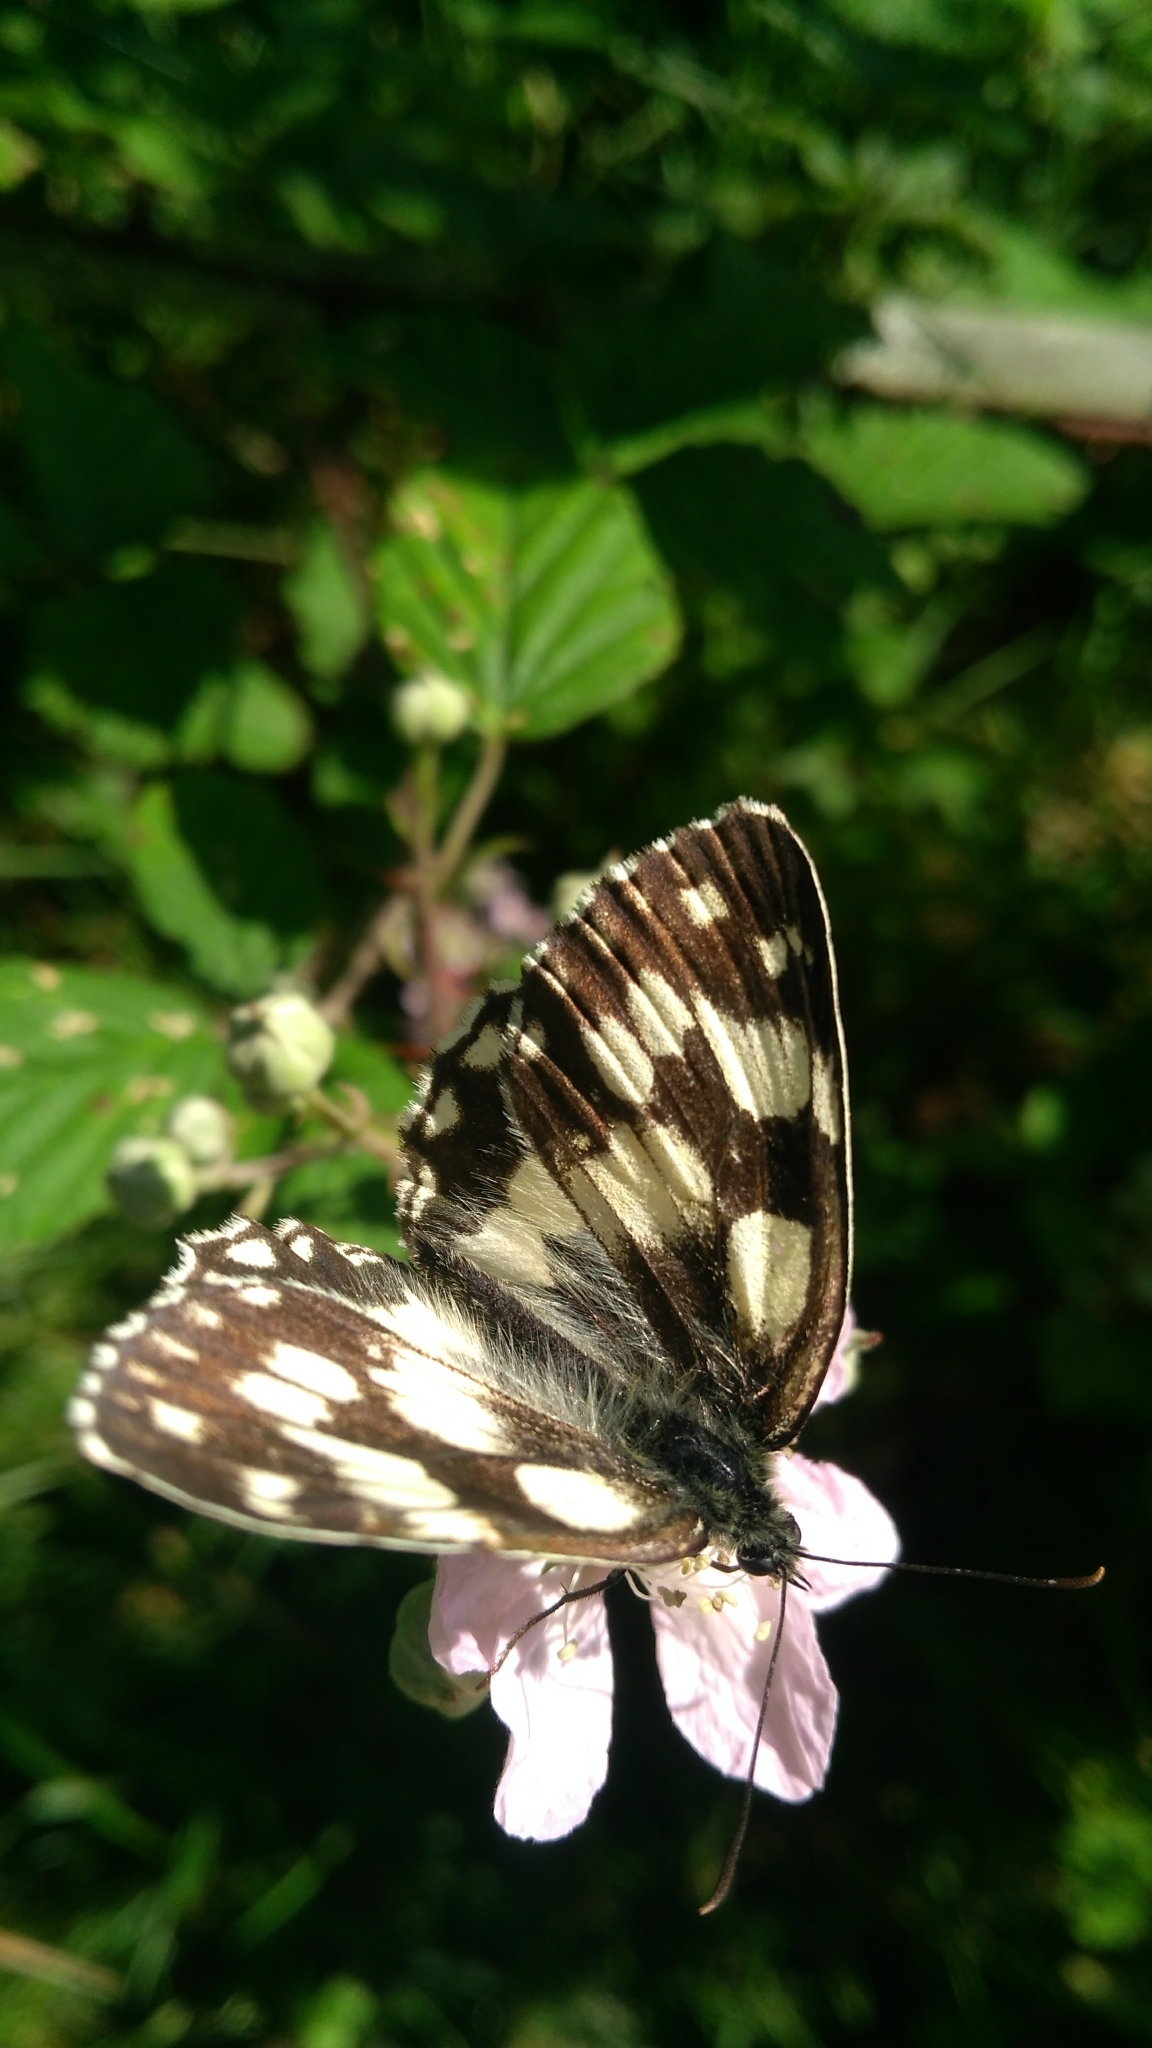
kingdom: Animalia
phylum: Arthropoda
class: Insecta
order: Lepidoptera
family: Nymphalidae
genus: Melanargia
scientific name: Melanargia galathea
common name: Marbled white
